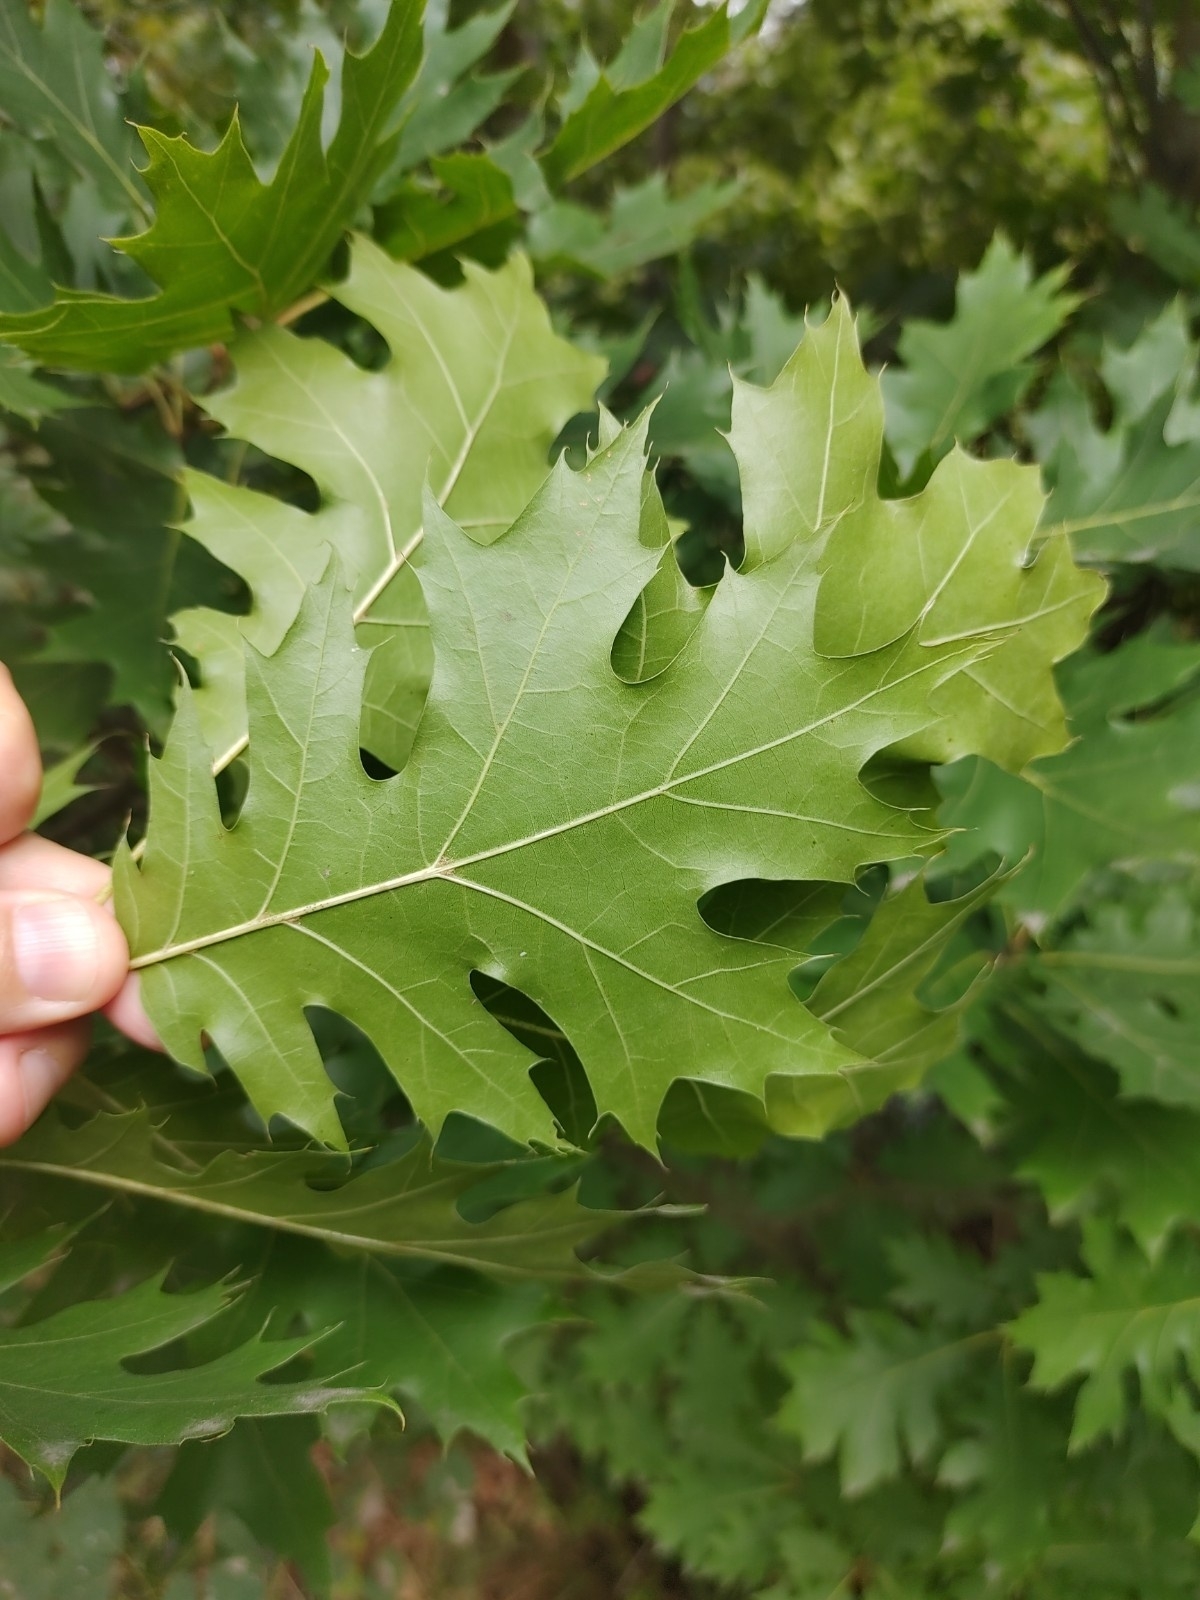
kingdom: Plantae
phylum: Tracheophyta
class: Magnoliopsida
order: Fagales
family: Fagaceae
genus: Quercus
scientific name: Quercus rubra
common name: Red oak
